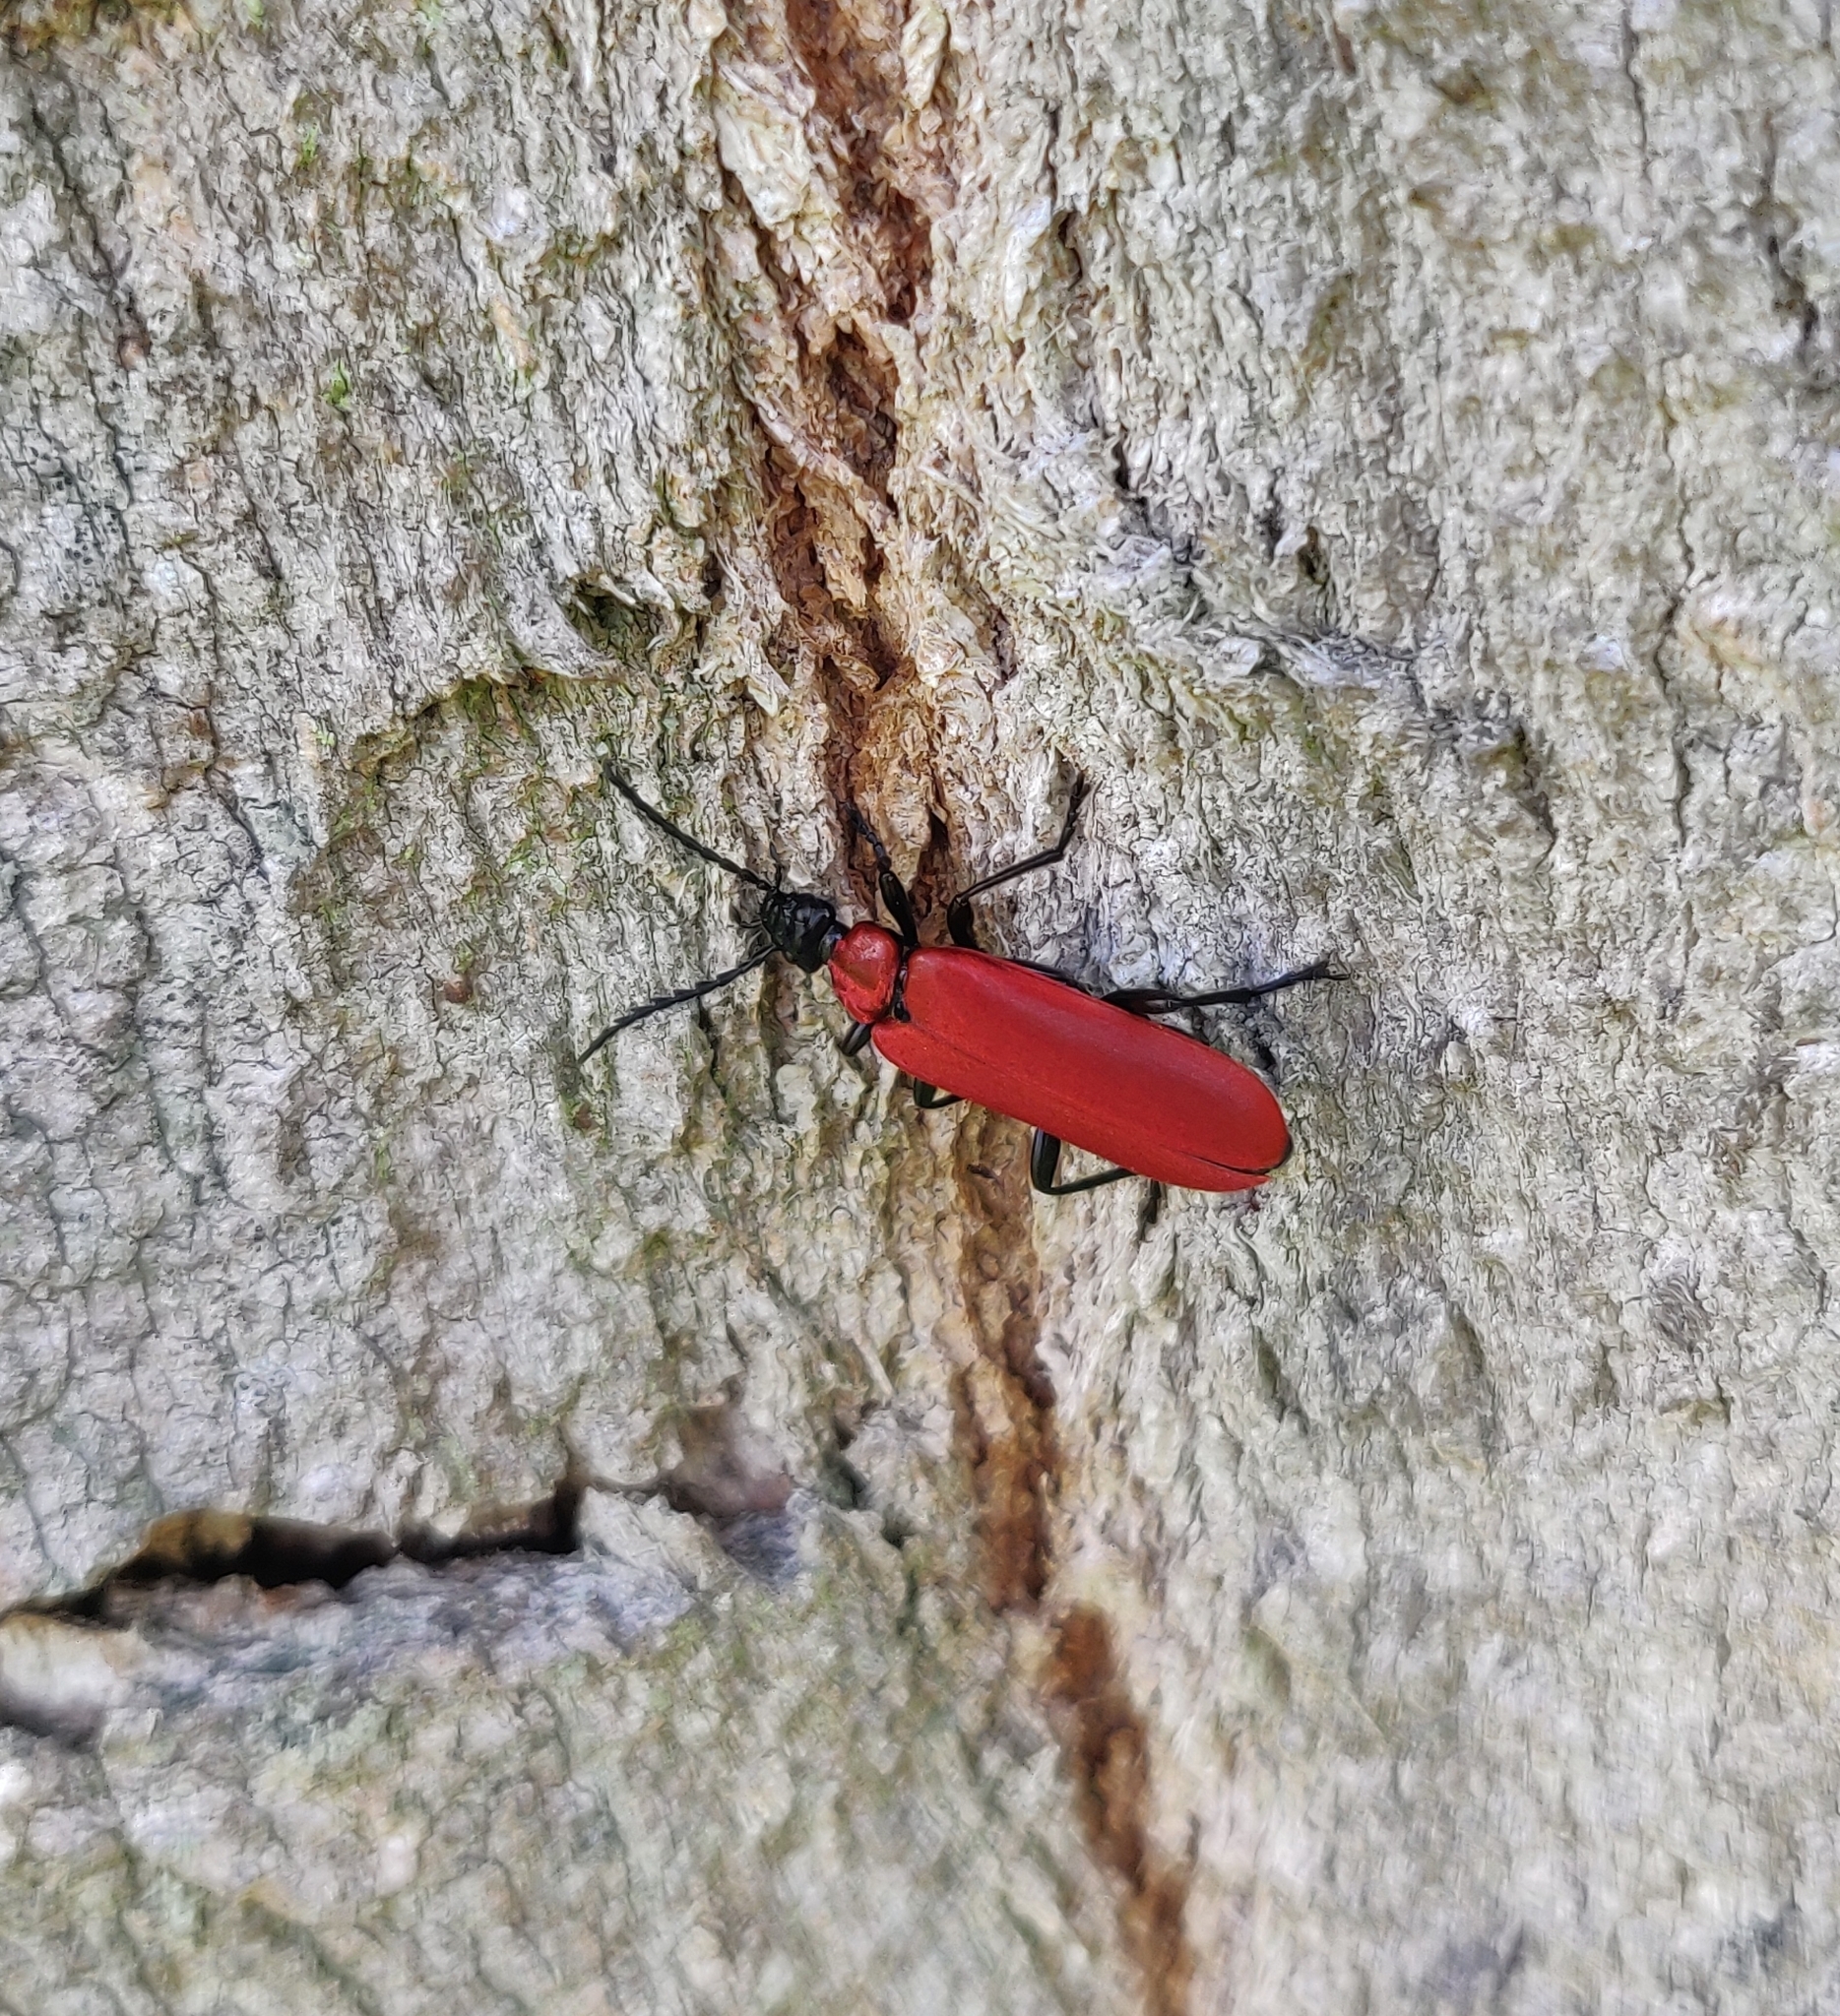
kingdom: Animalia
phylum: Arthropoda
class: Insecta
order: Coleoptera
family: Pyrochroidae
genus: Pyrochroa
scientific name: Pyrochroa coccinea
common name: Black-headed cardinal beetle
